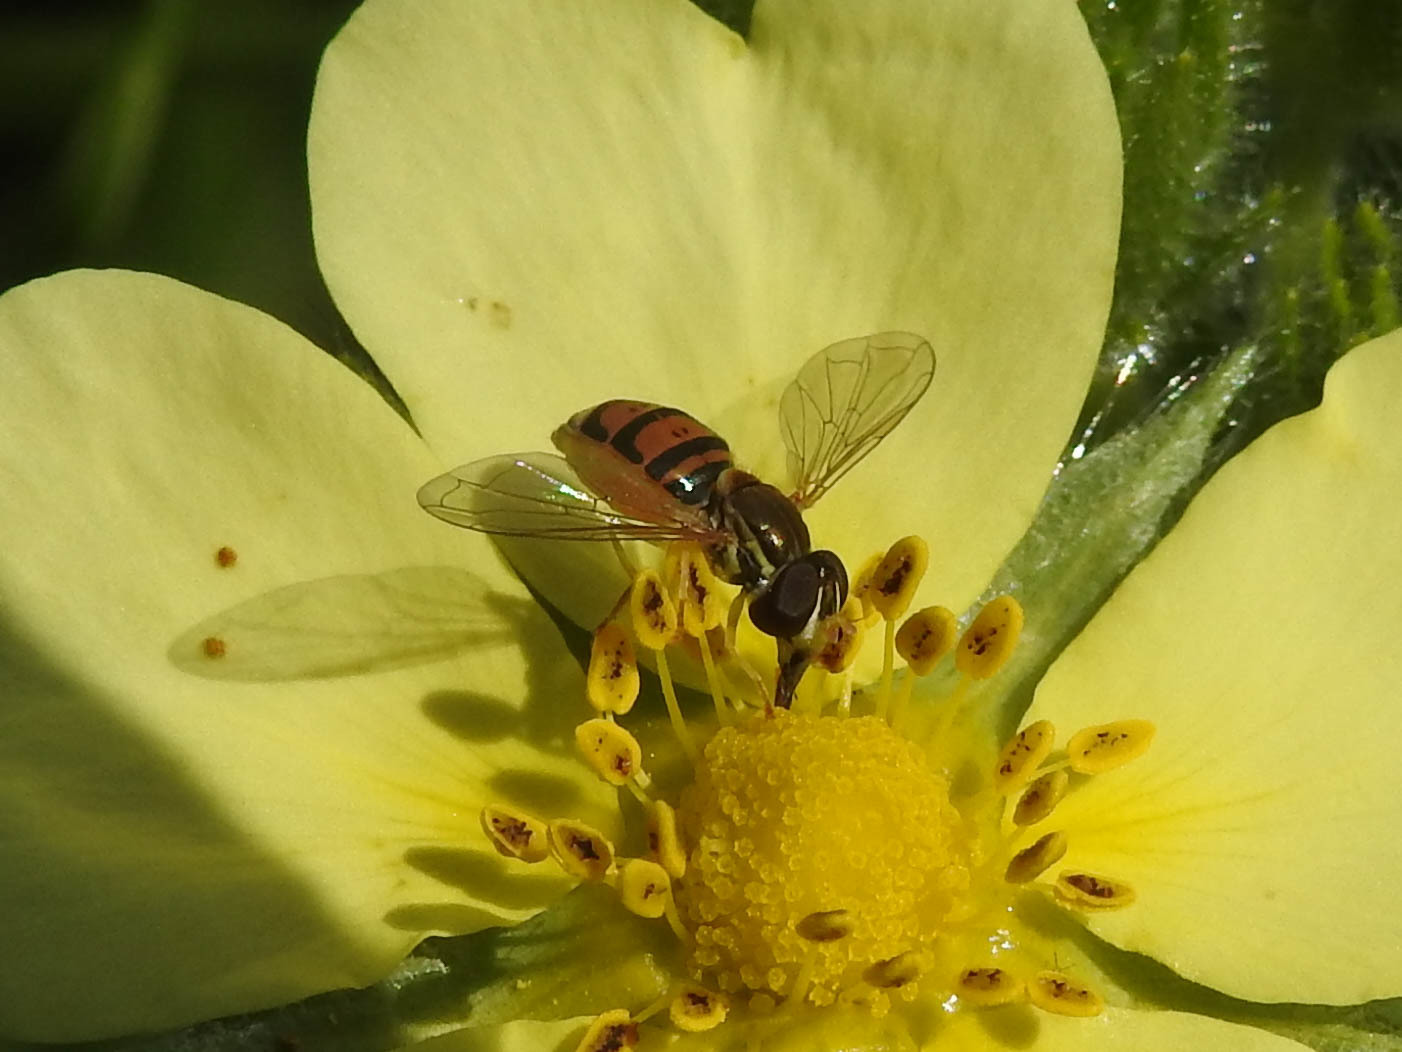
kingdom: Animalia
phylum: Arthropoda
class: Insecta
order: Diptera
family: Syrphidae
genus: Toxomerus
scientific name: Toxomerus marginatus
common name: Syrphid fly
